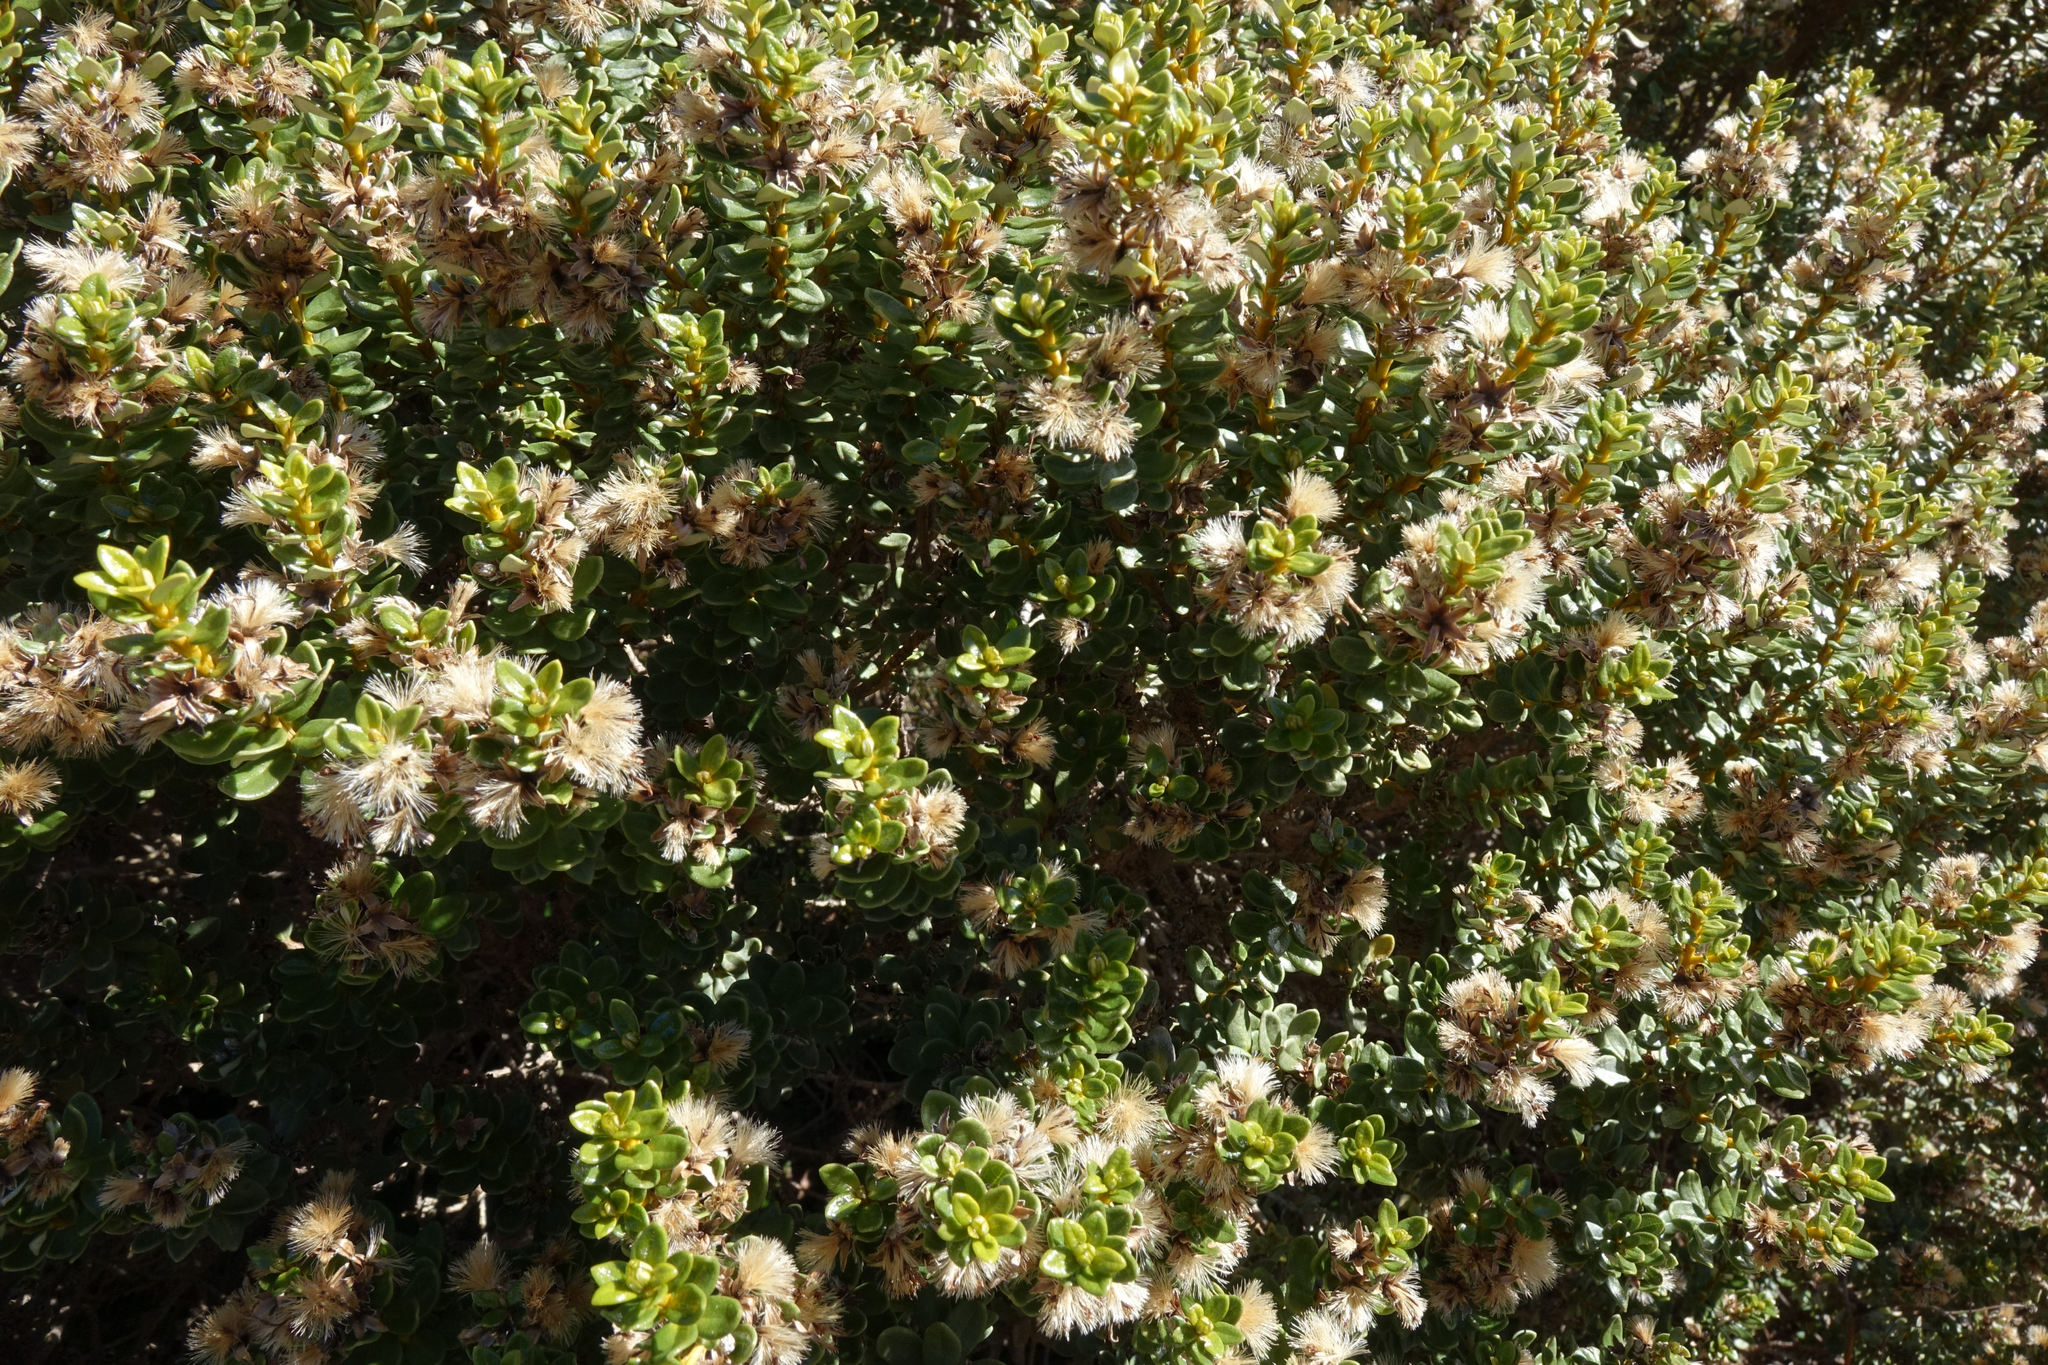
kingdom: Plantae
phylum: Tracheophyta
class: Magnoliopsida
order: Asterales
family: Asteraceae
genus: Olearia
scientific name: Olearia nummularifolia
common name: Sticky daisybush
